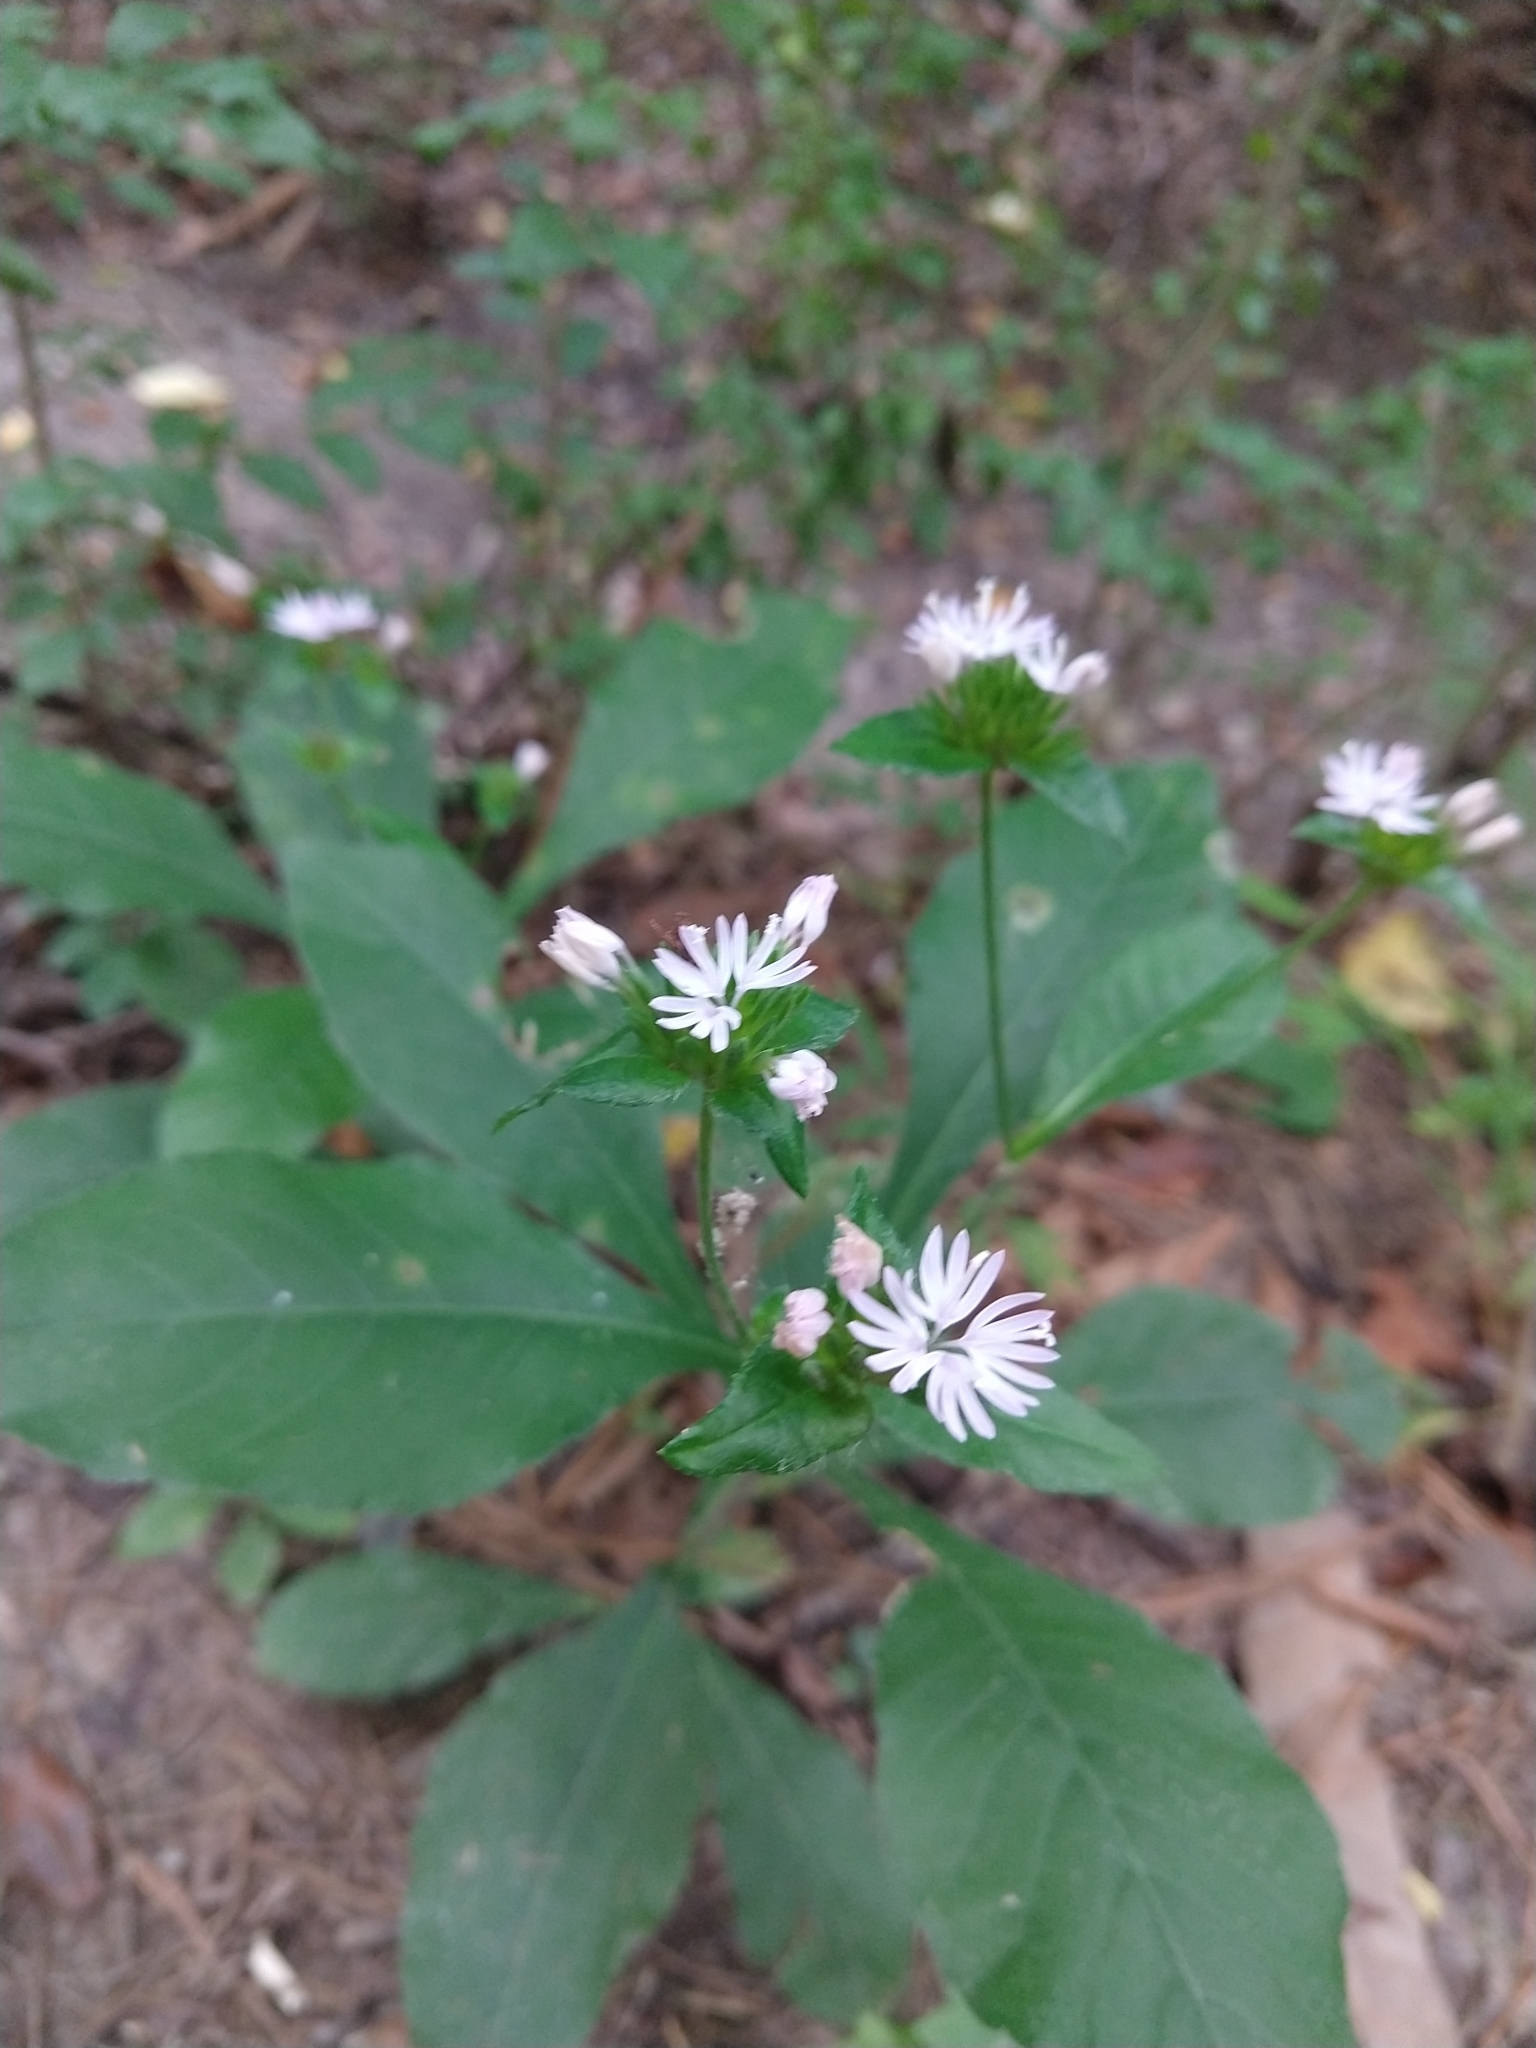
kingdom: Plantae
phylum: Tracheophyta
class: Magnoliopsida
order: Asterales
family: Asteraceae
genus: Elephantopus
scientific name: Elephantopus carolinianus
